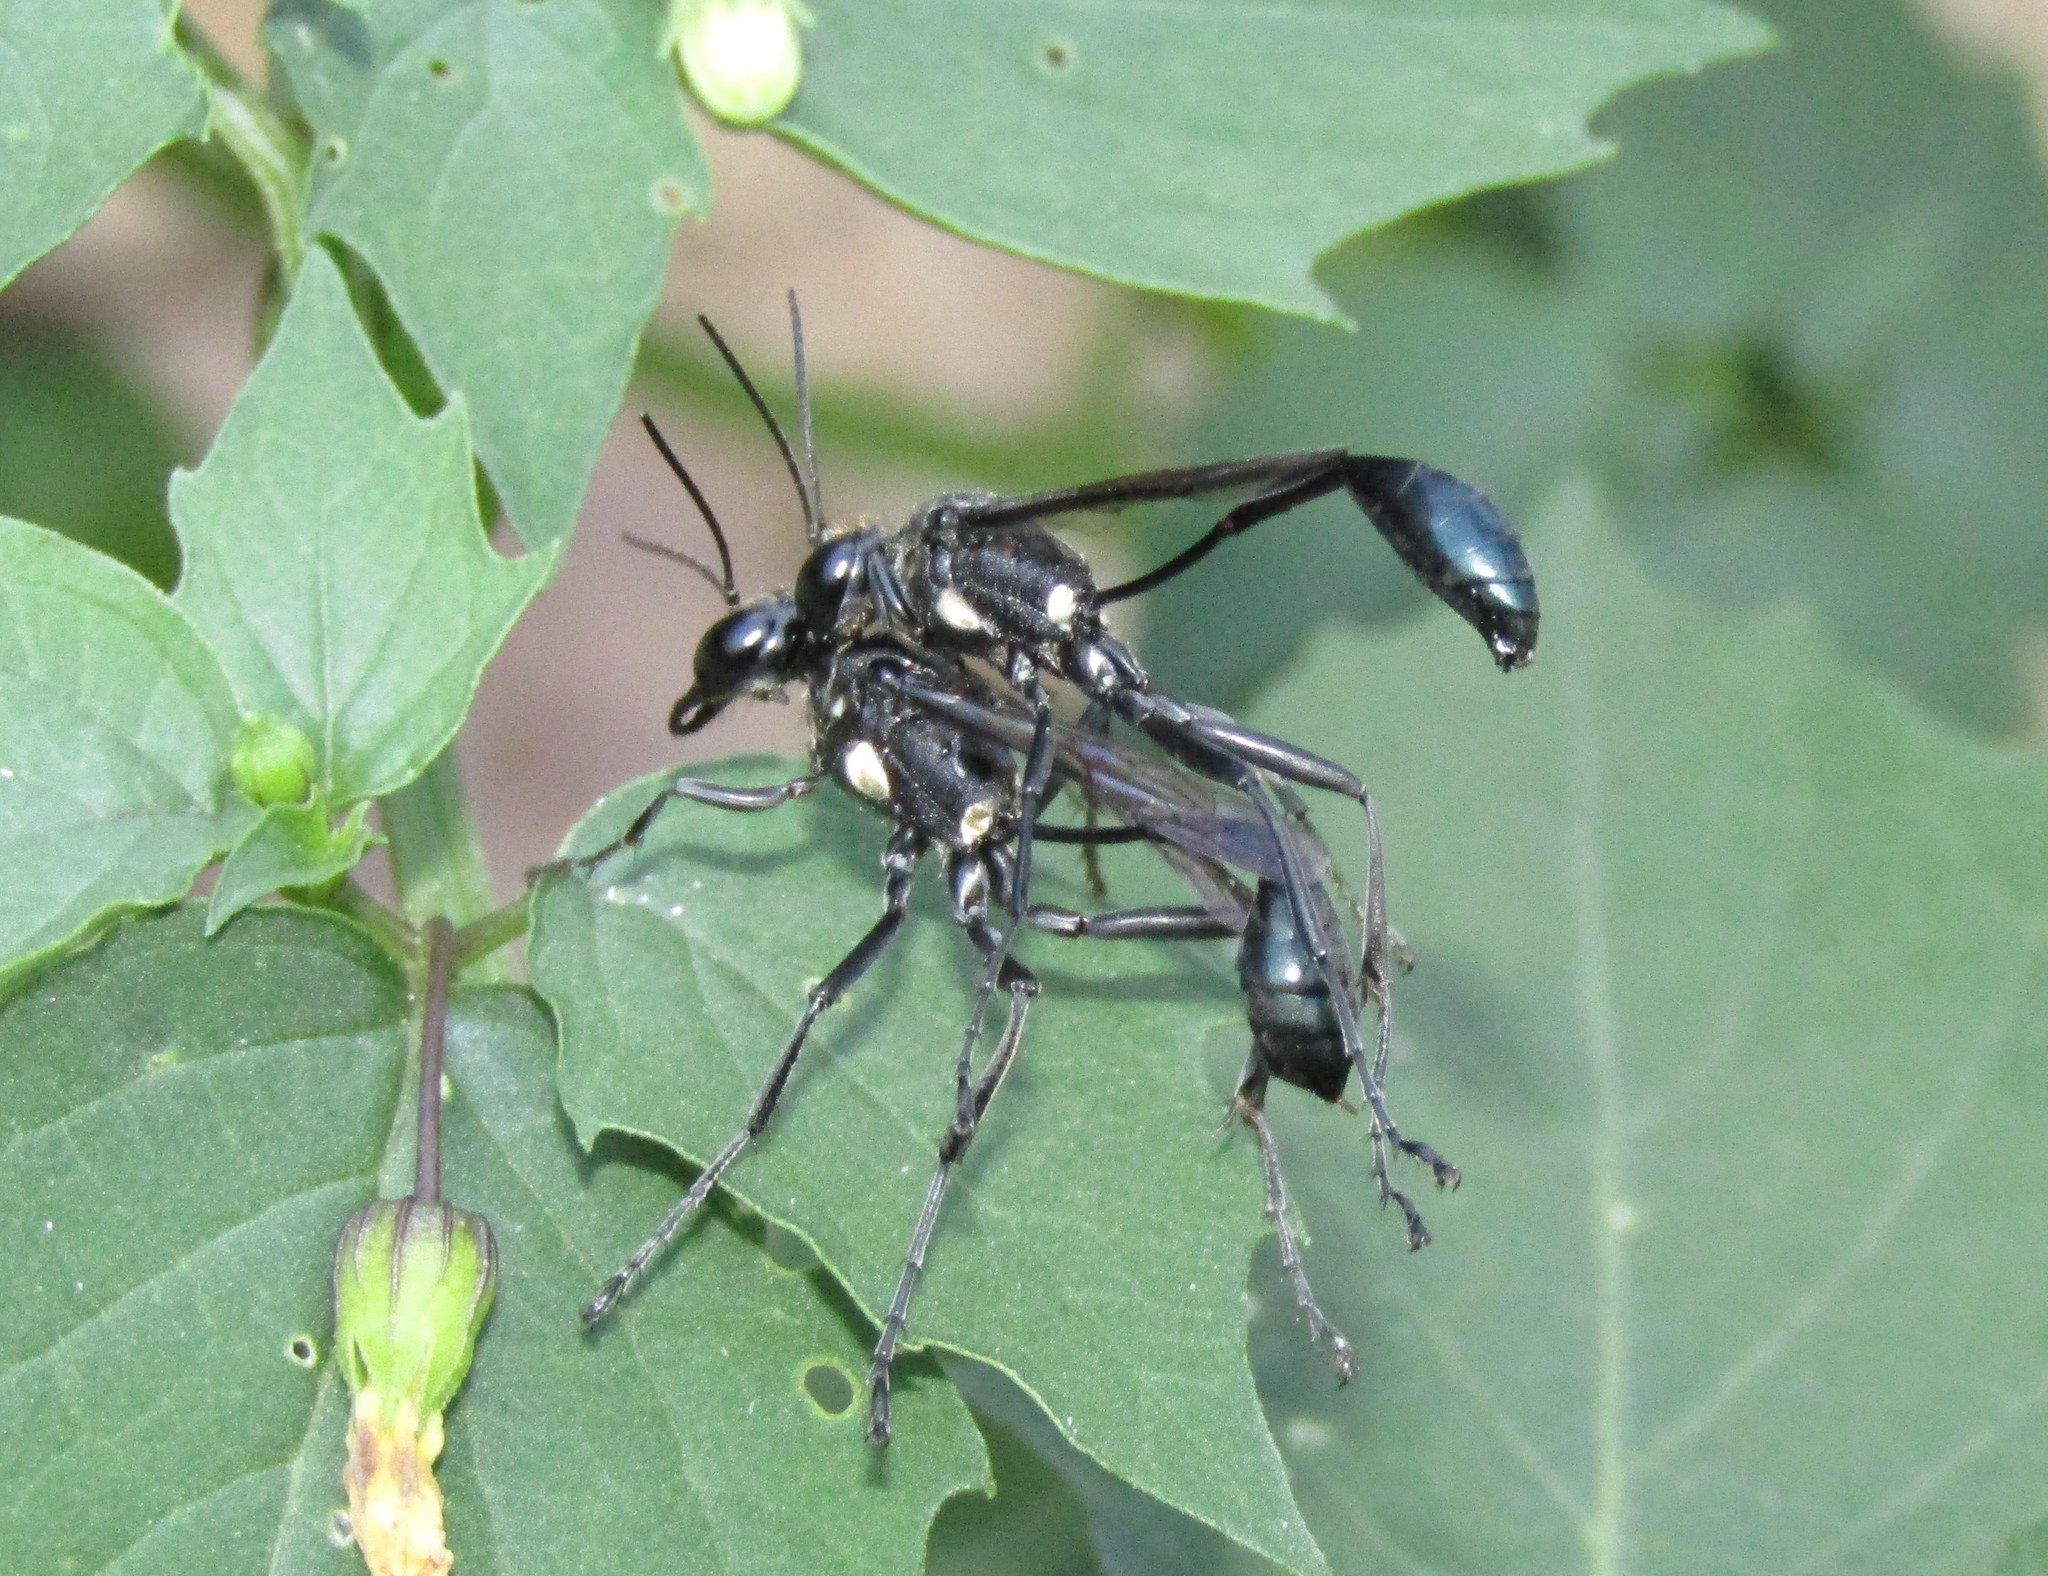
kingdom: Animalia
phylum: Arthropoda
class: Insecta
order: Hymenoptera
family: Sphecidae
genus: Eremnophila
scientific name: Eremnophila aureonotata
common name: Gold-marked thread-waisted wasp
